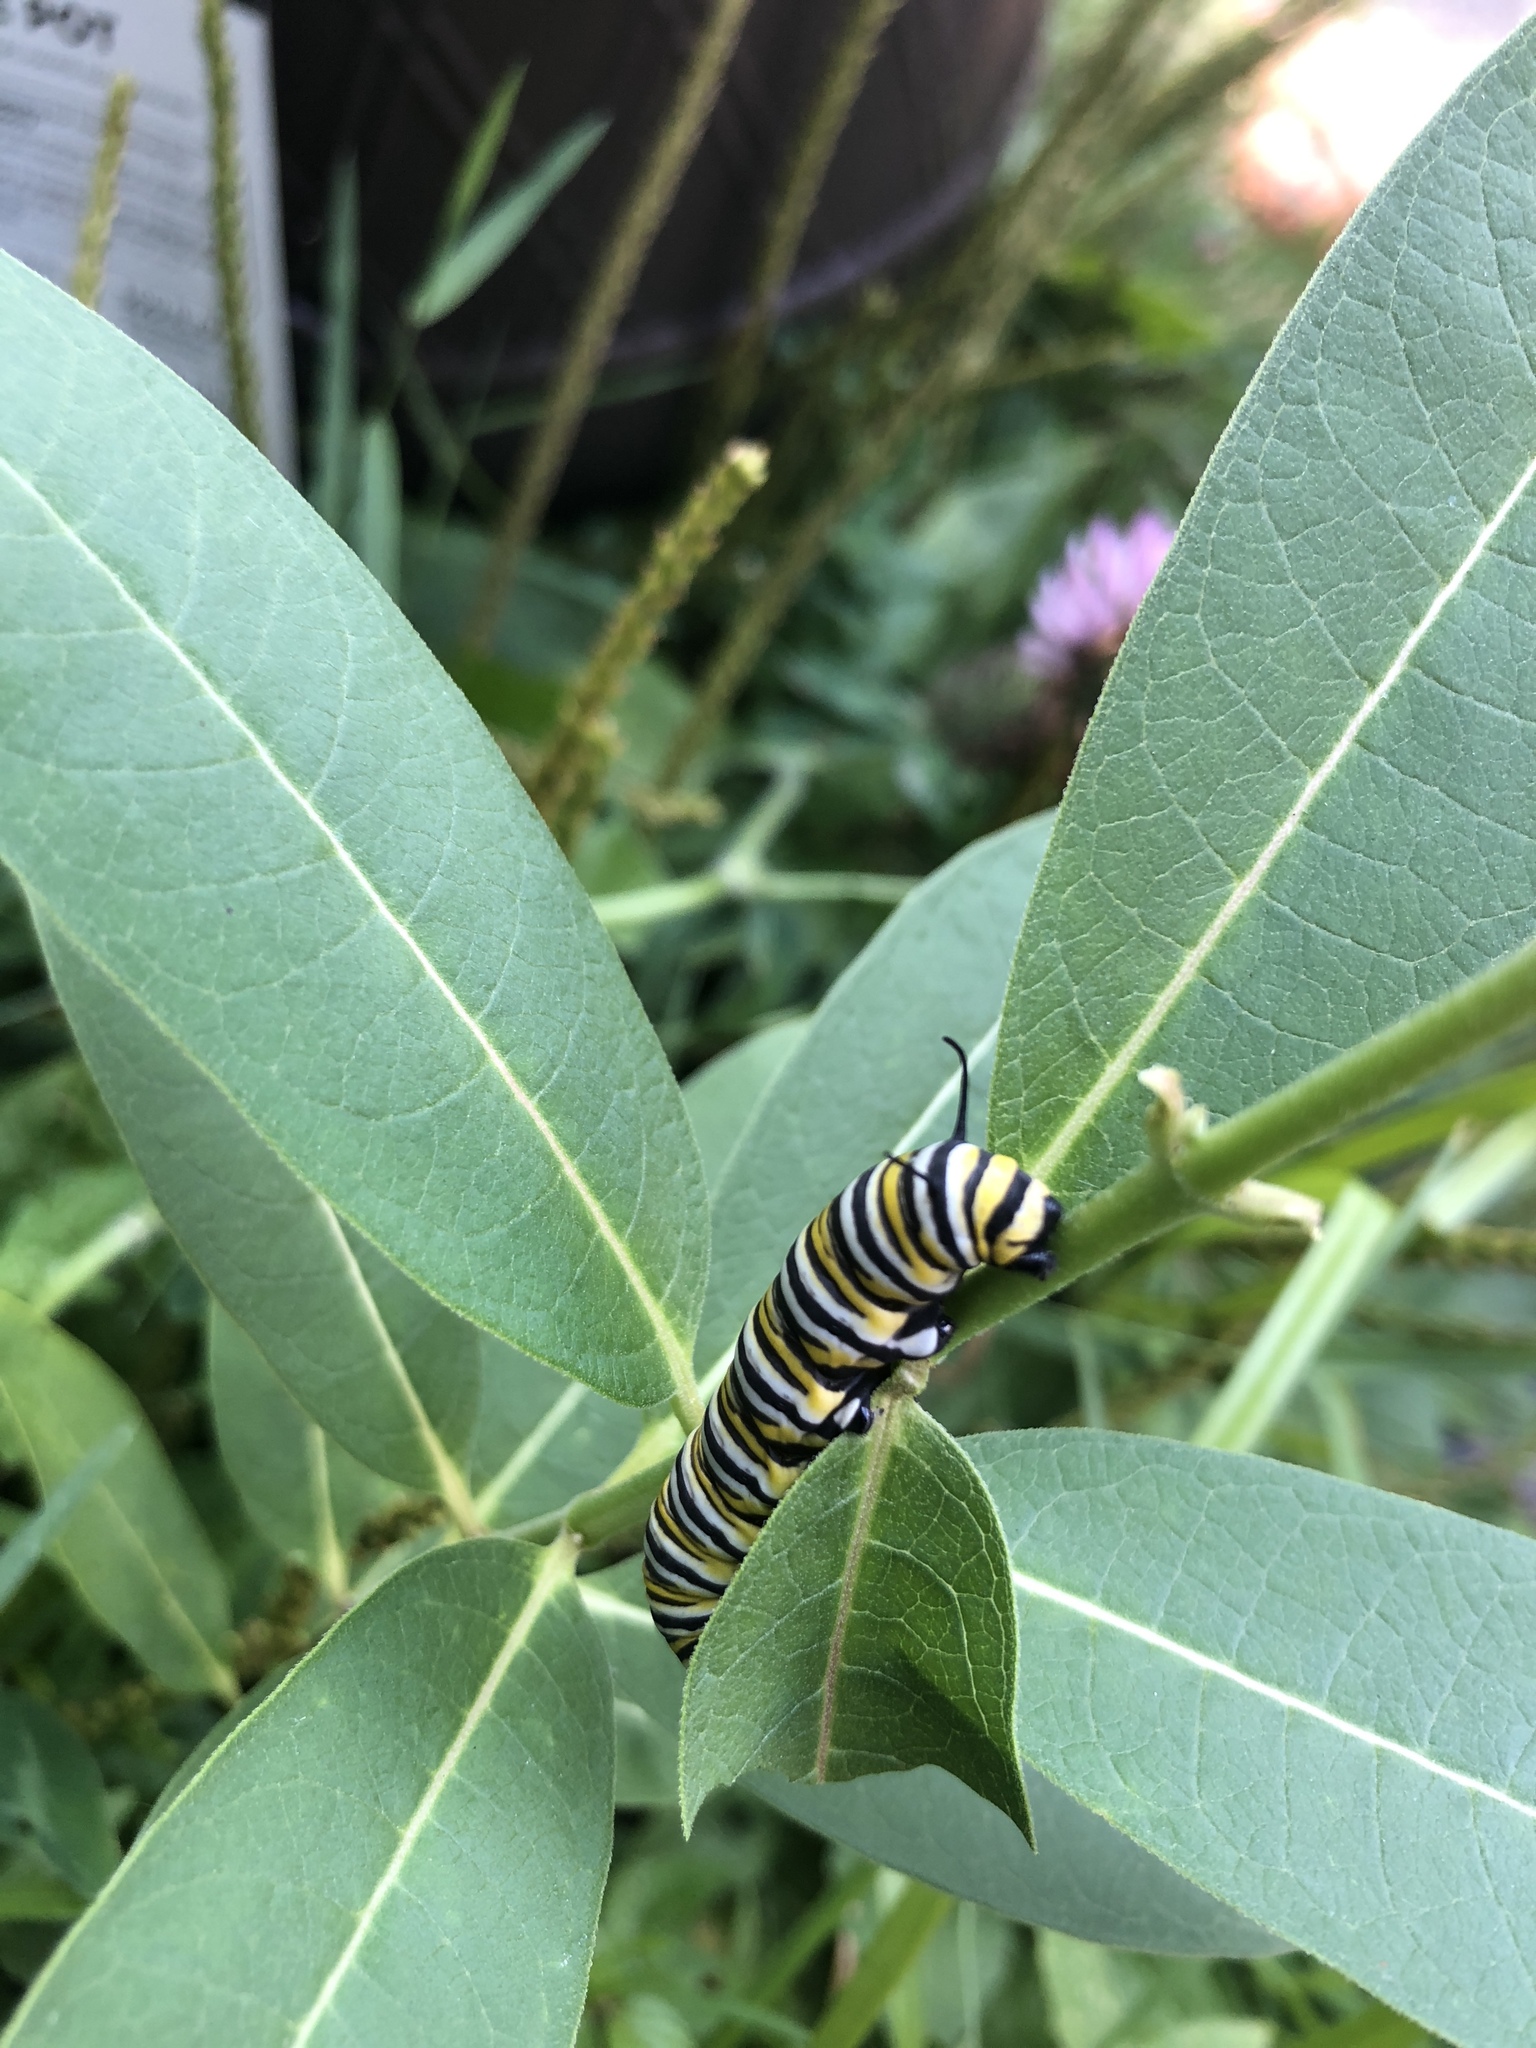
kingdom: Animalia
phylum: Arthropoda
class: Insecta
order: Lepidoptera
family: Nymphalidae
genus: Danaus
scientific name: Danaus plexippus
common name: Monarch
